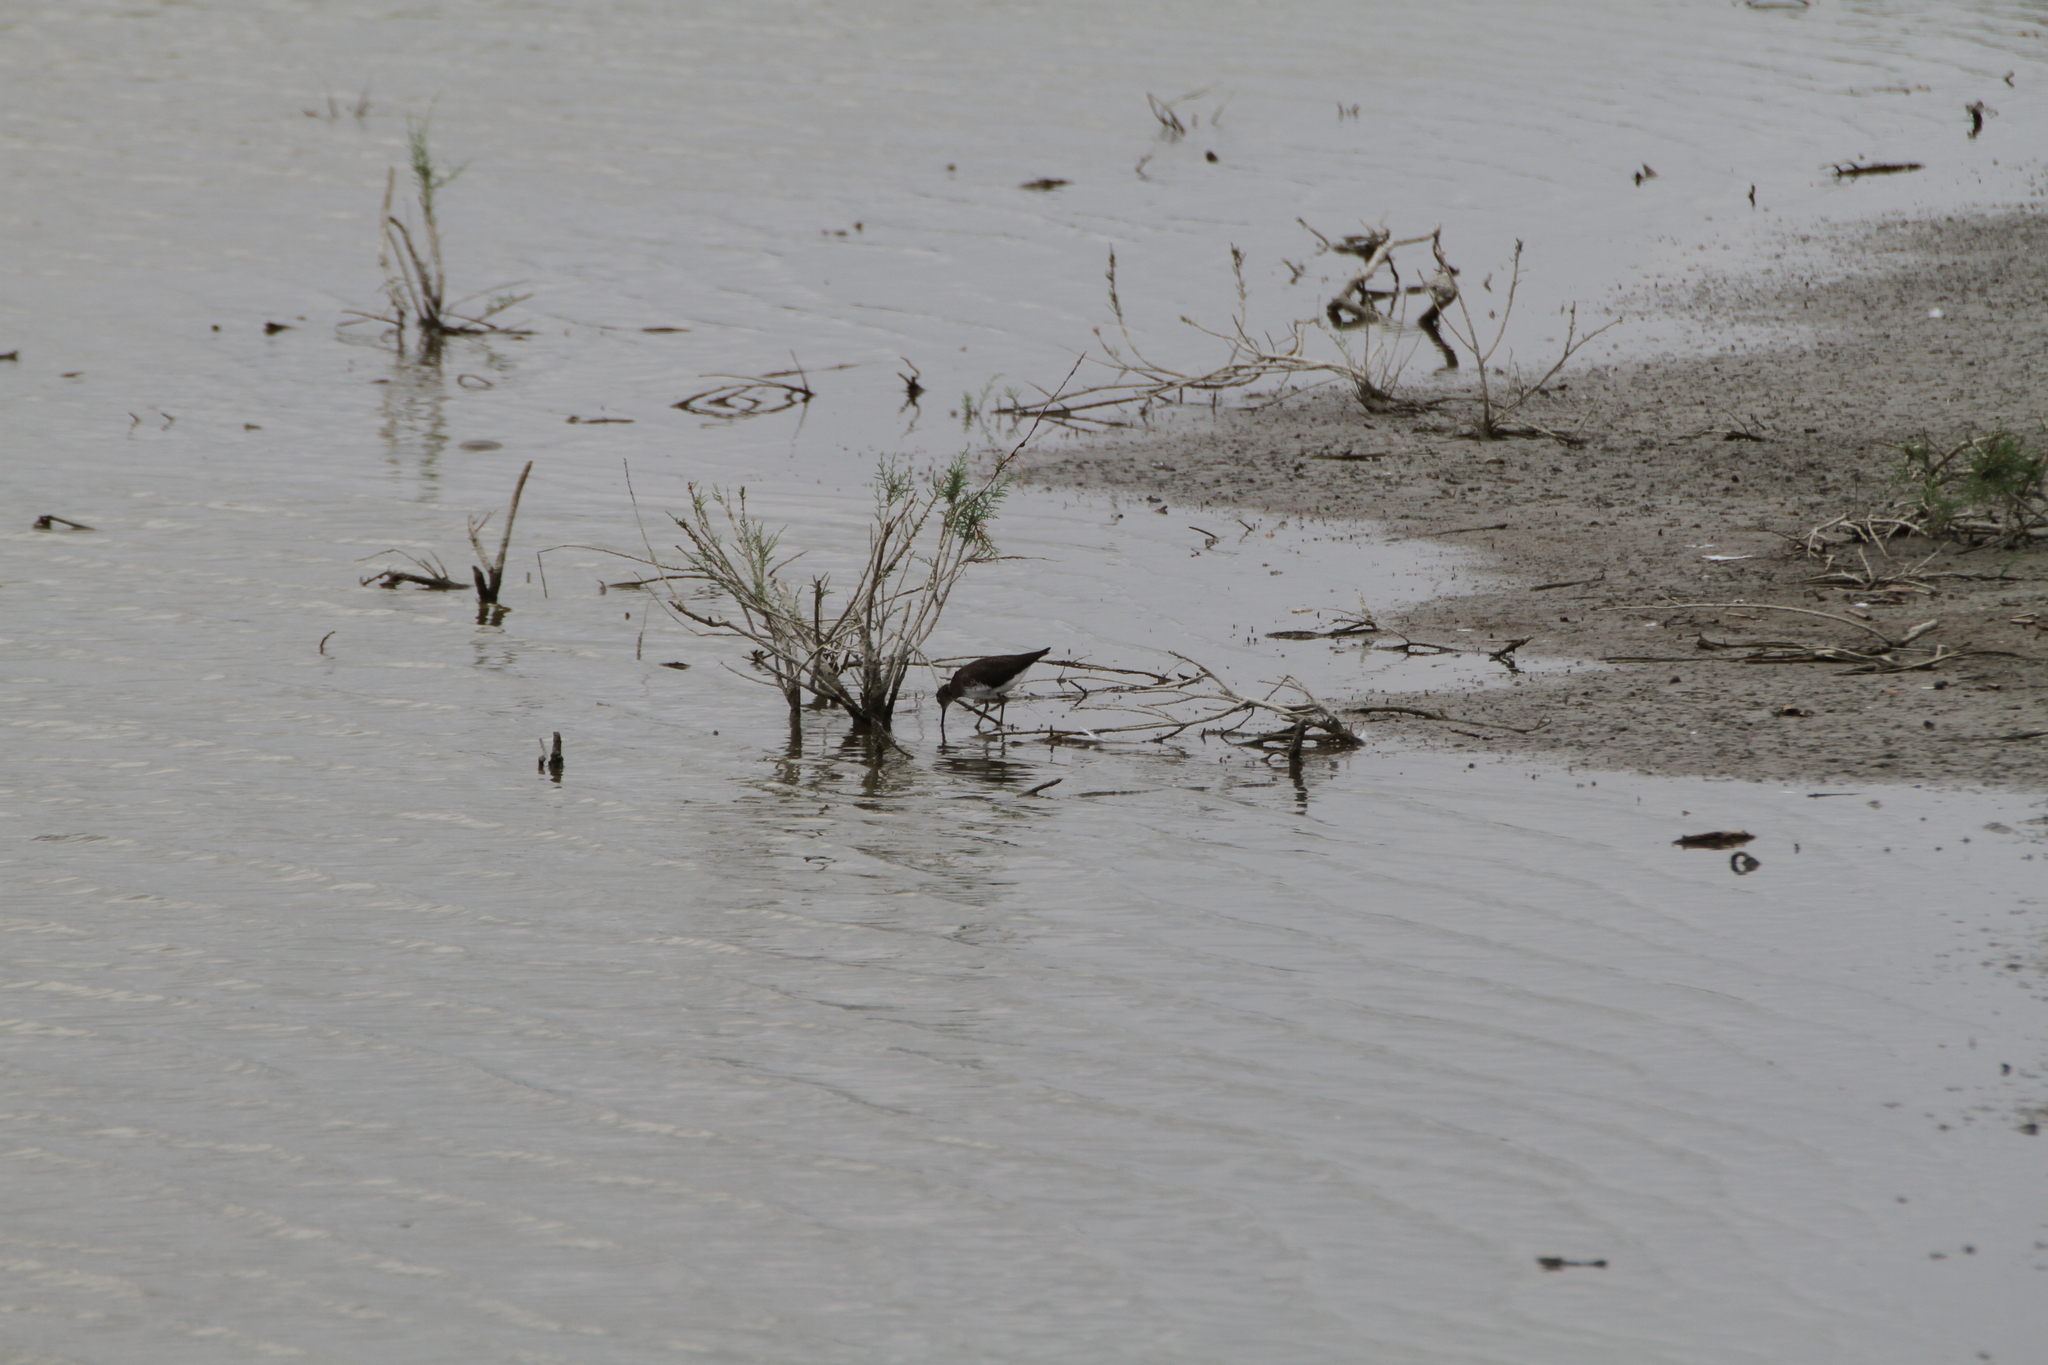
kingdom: Animalia
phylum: Chordata
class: Aves
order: Charadriiformes
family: Scolopacidae
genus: Tringa
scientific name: Tringa ochropus
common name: Green sandpiper
